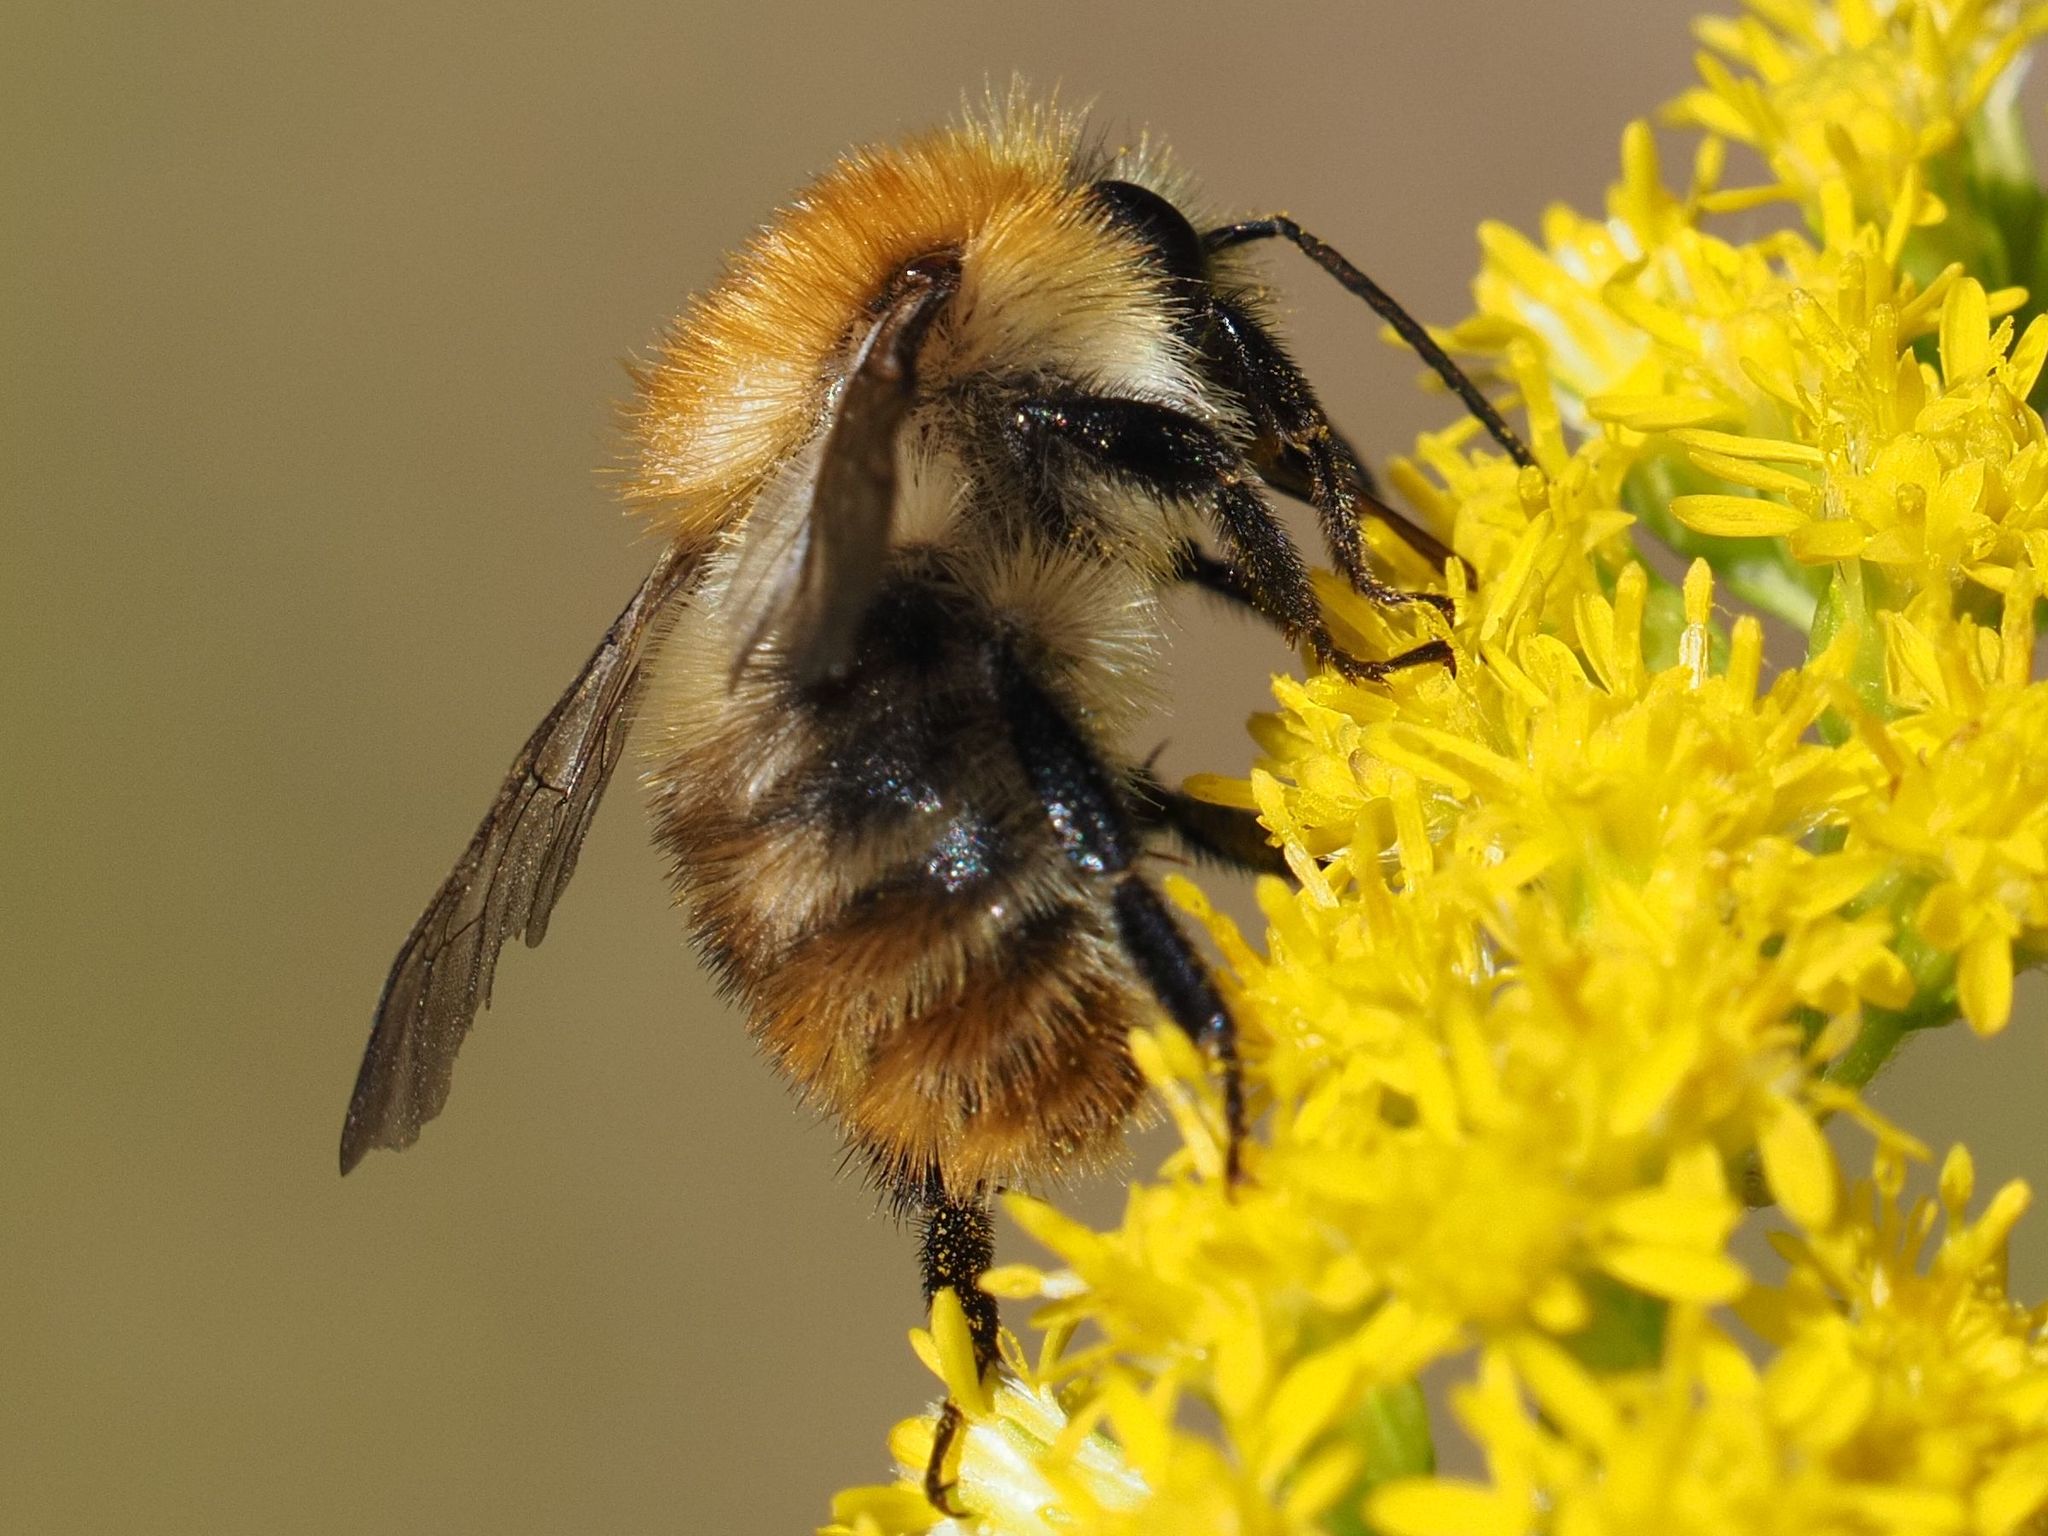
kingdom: Animalia
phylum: Arthropoda
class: Insecta
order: Hymenoptera
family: Apidae
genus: Bombus
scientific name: Bombus pascuorum
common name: Common carder bee
